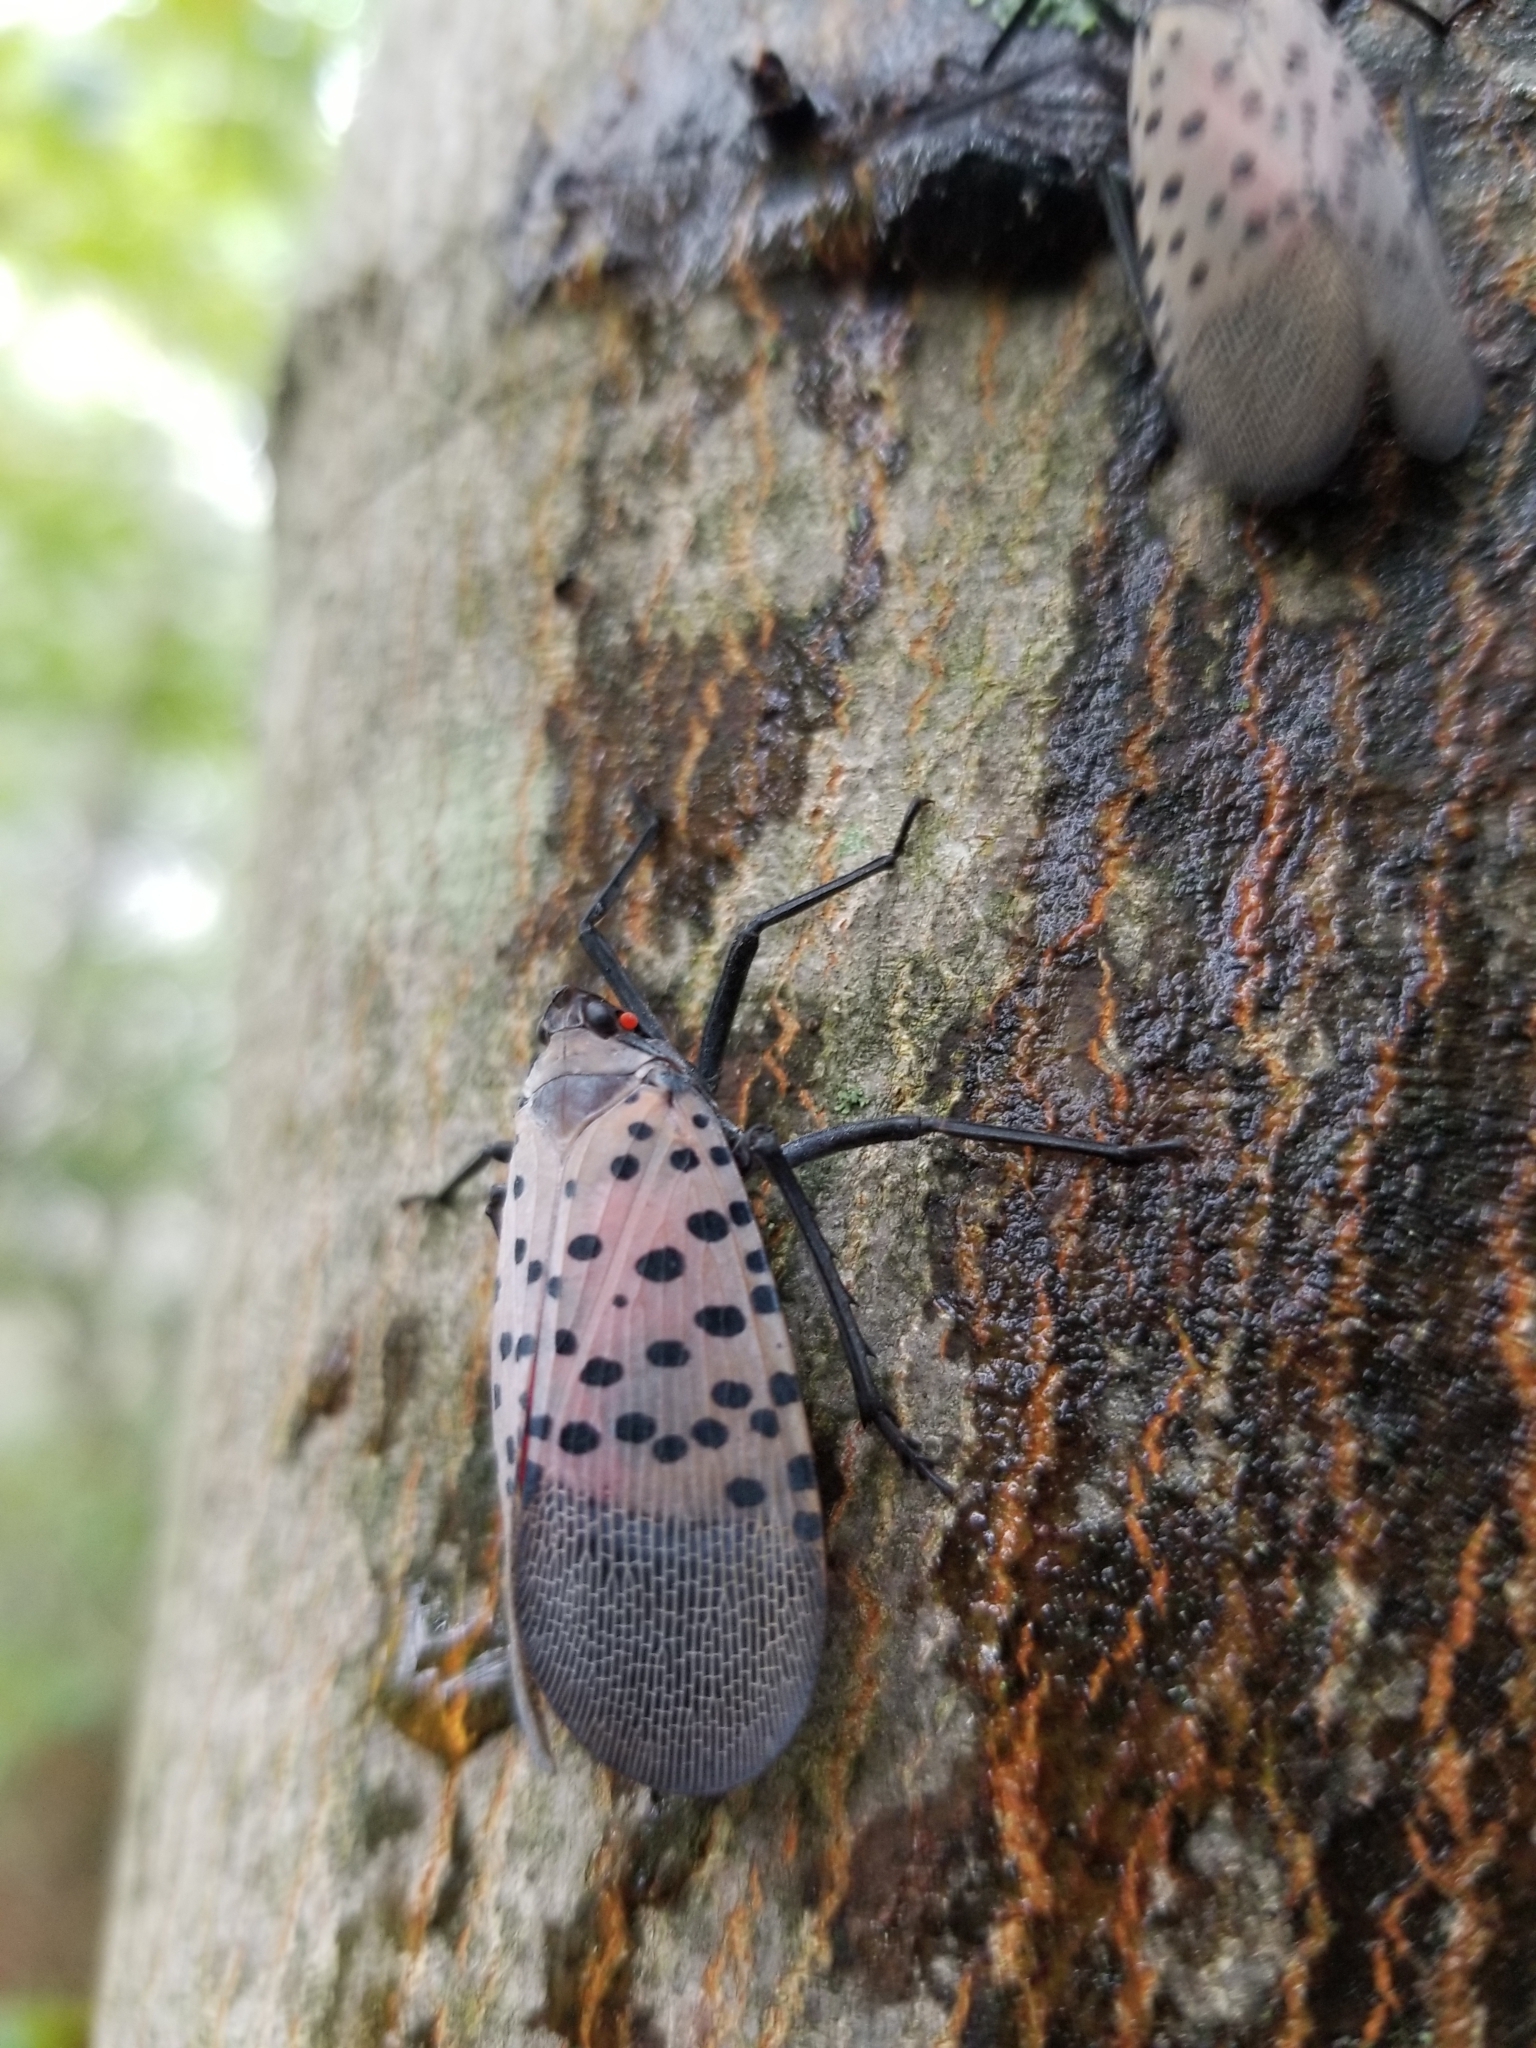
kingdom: Animalia
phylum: Arthropoda
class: Insecta
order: Hemiptera
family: Fulgoridae
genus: Lycorma
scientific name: Lycorma delicatula
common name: Spotted lanternfly
